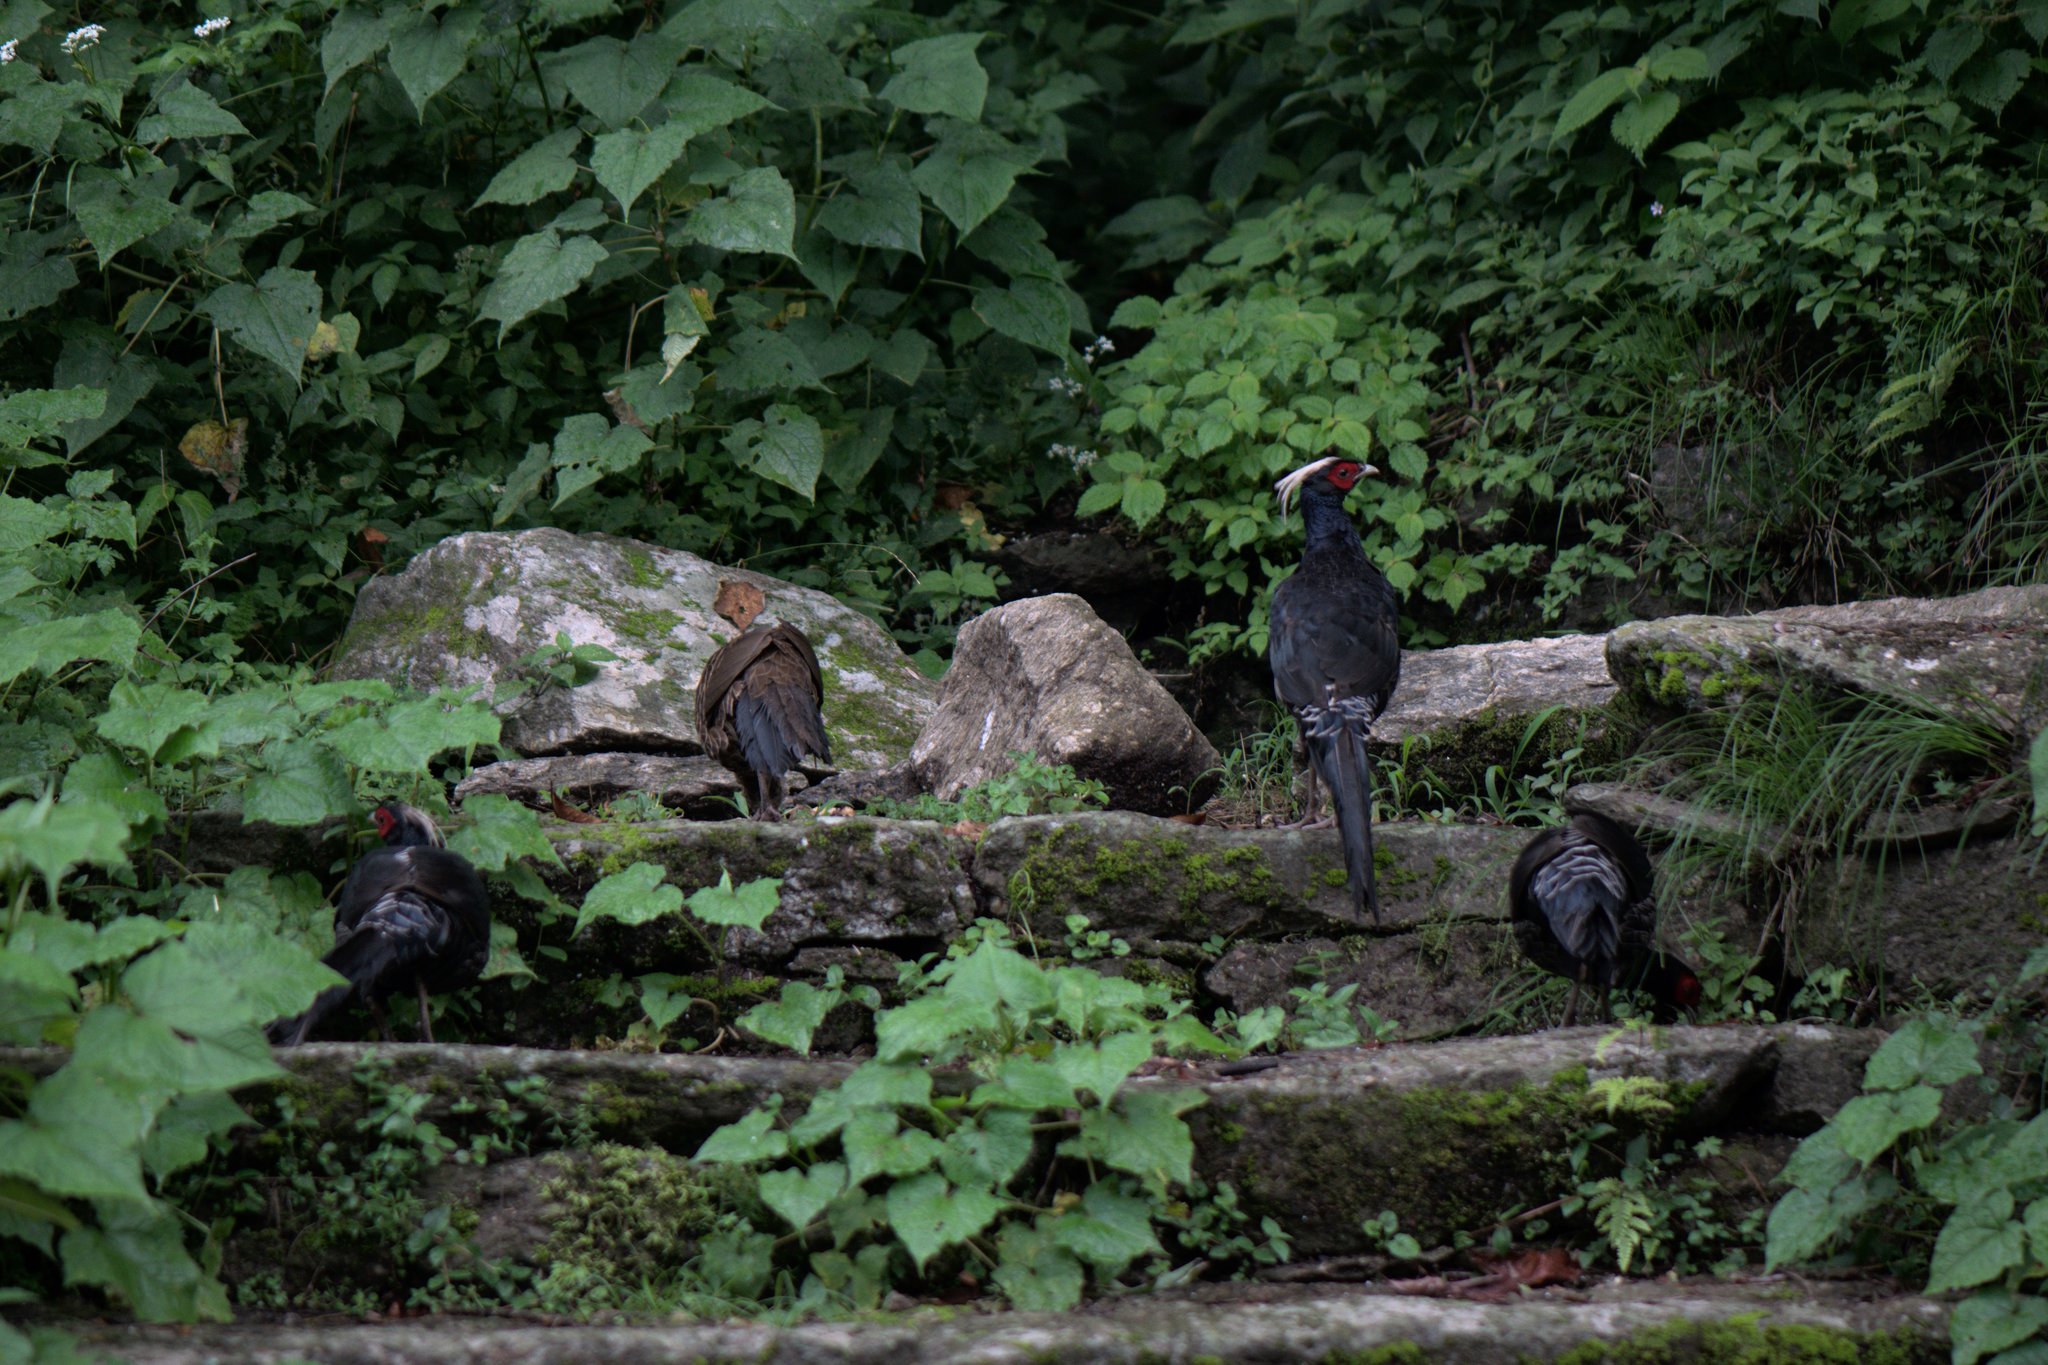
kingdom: Animalia
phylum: Chordata
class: Aves
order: Galliformes
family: Phasianidae
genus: Lophura
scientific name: Lophura leucomelanos
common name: Kalij pheasant
